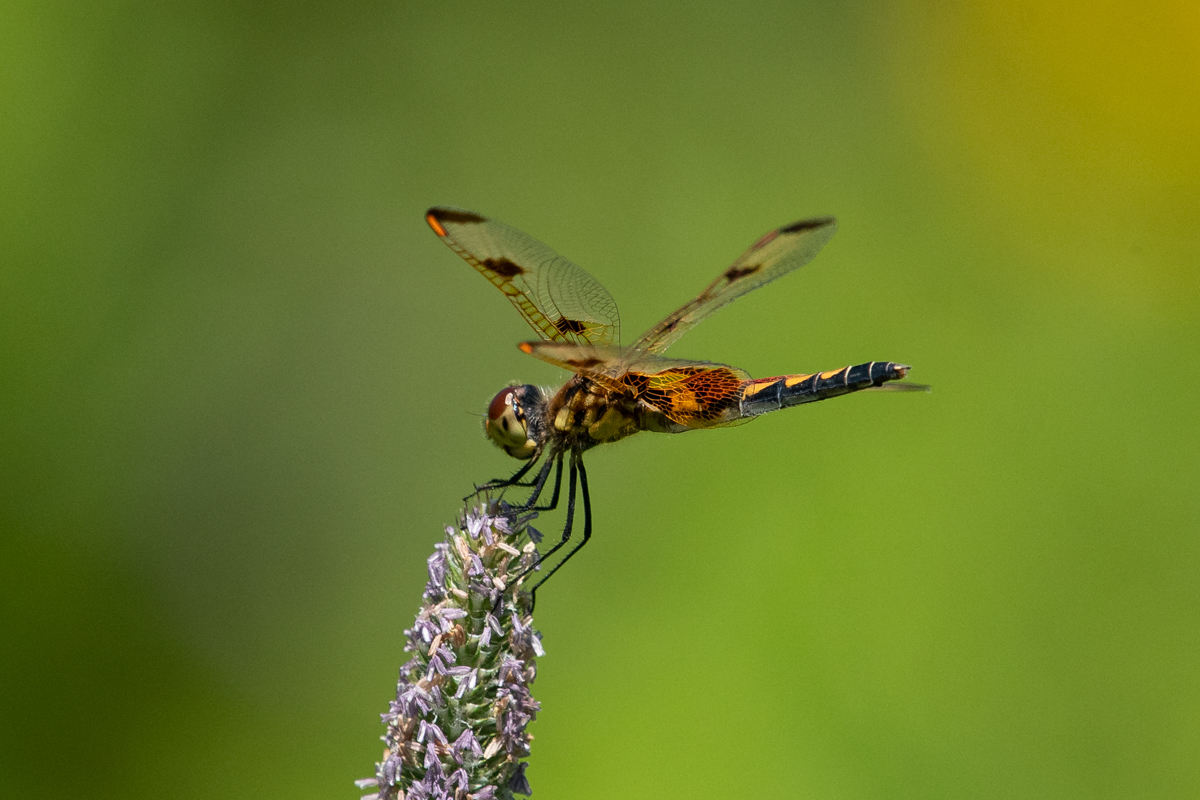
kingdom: Animalia
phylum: Arthropoda
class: Insecta
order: Odonata
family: Libellulidae
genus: Celithemis
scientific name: Celithemis elisa
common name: Calico pennant
